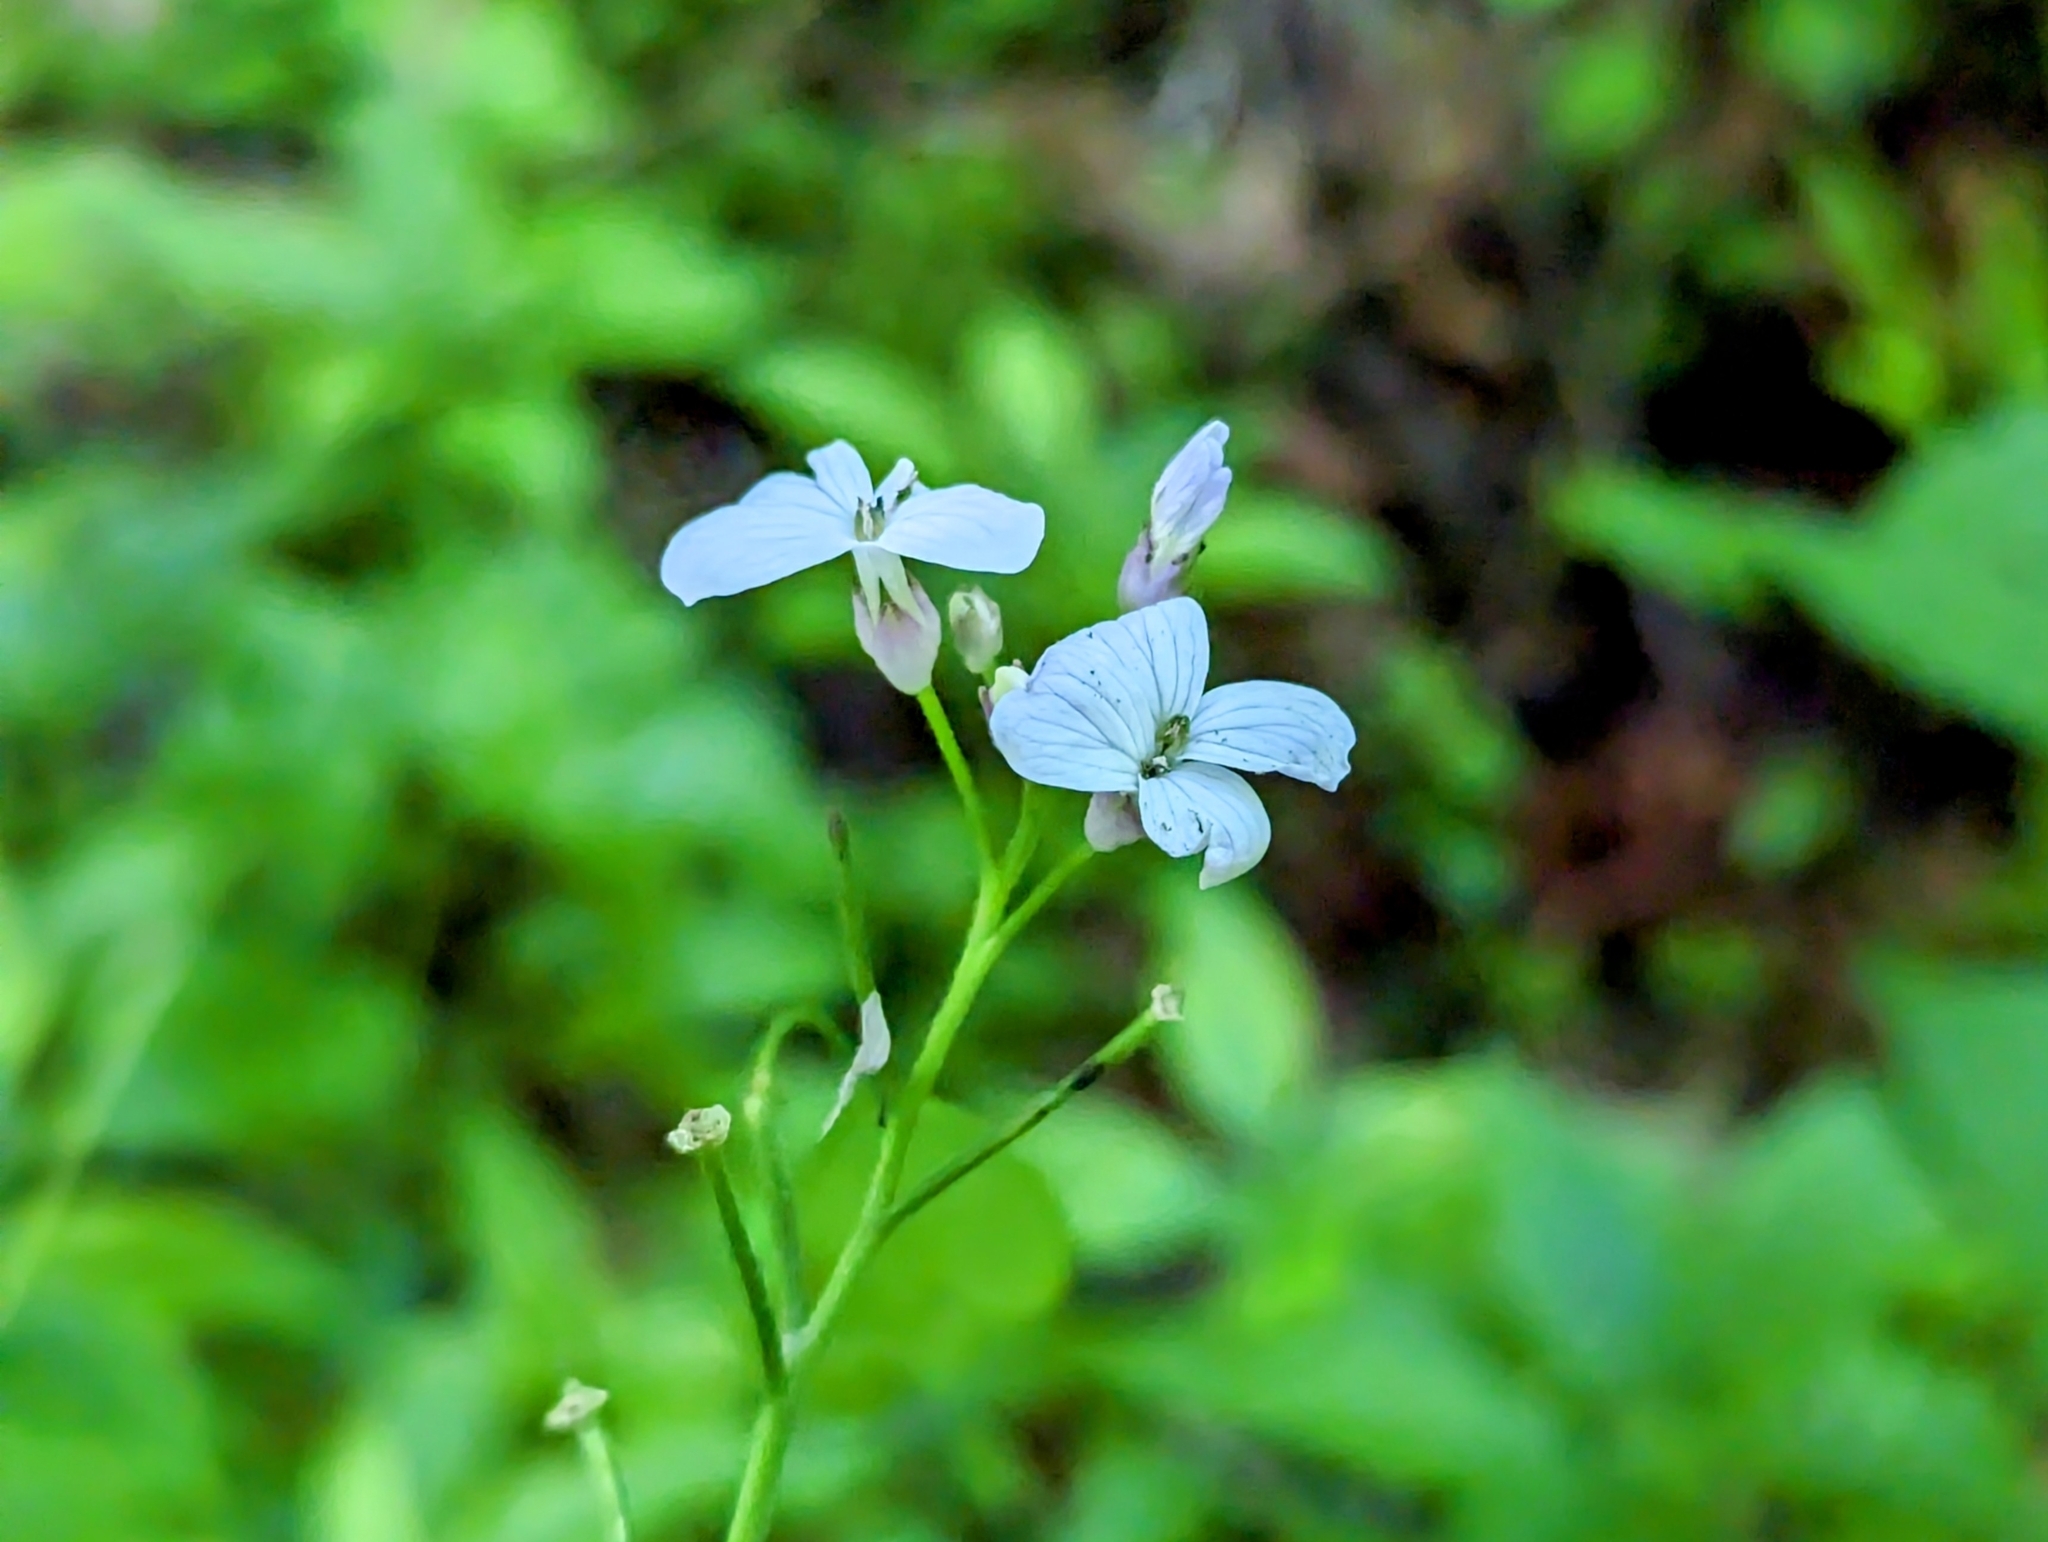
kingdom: Plantae
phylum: Tracheophyta
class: Magnoliopsida
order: Brassicales
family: Brassicaceae
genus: Lunaria
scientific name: Lunaria rediviva
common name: Perennial honesty
